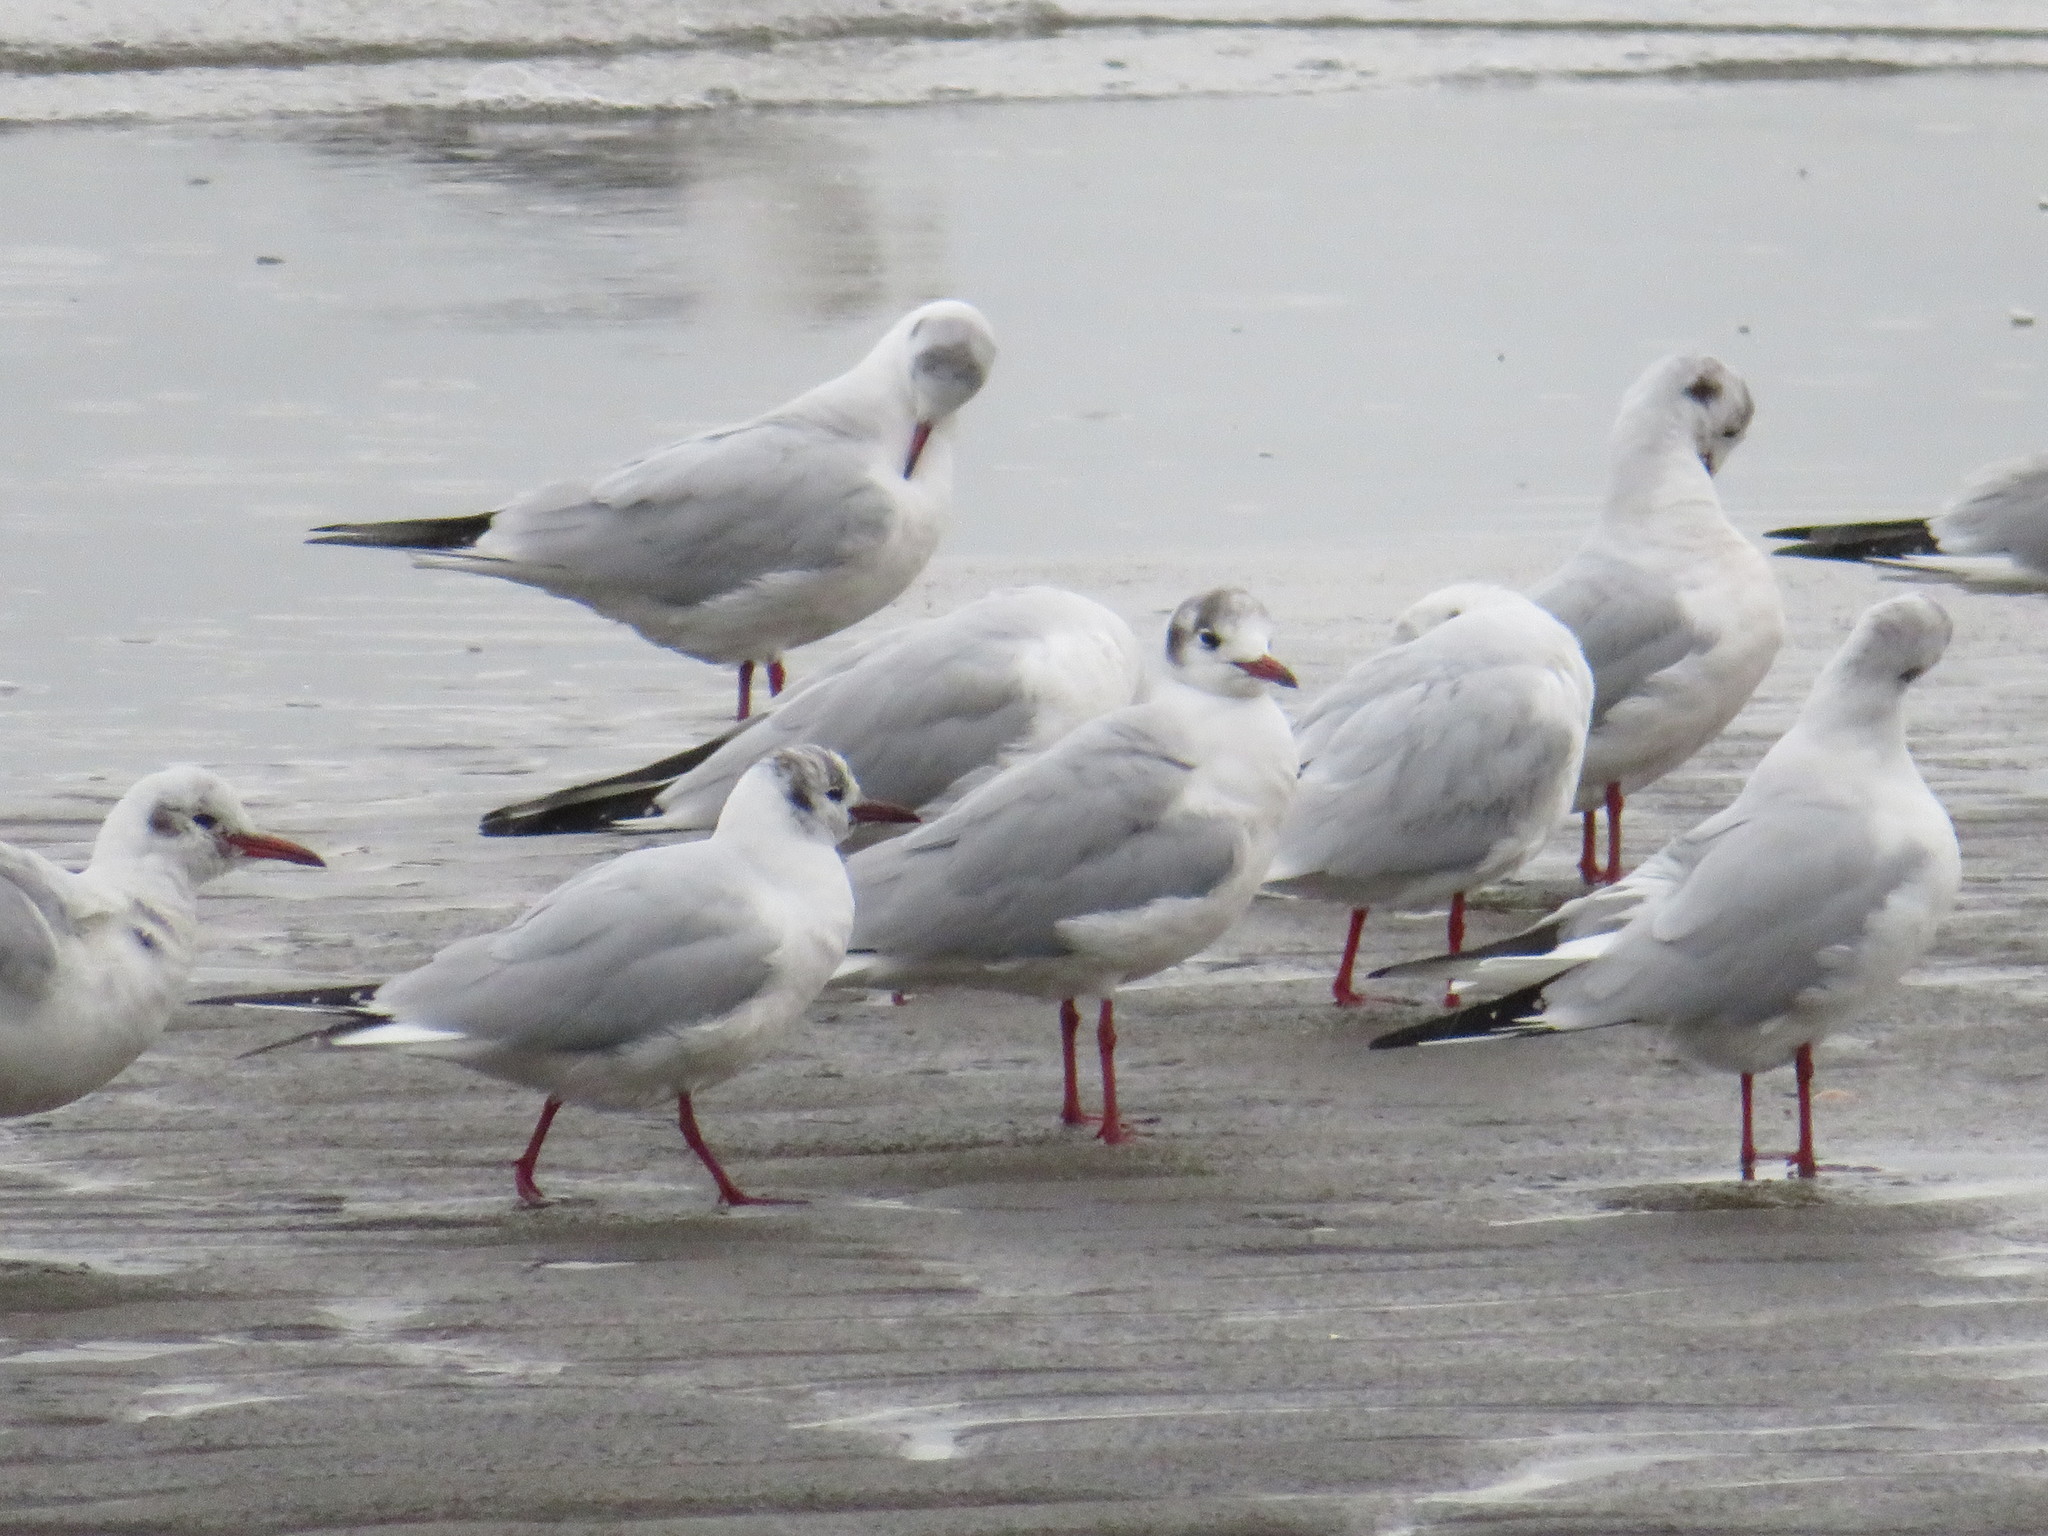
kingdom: Animalia
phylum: Chordata
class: Aves
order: Charadriiformes
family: Laridae
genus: Chroicocephalus
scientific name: Chroicocephalus ridibundus
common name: Black-headed gull
